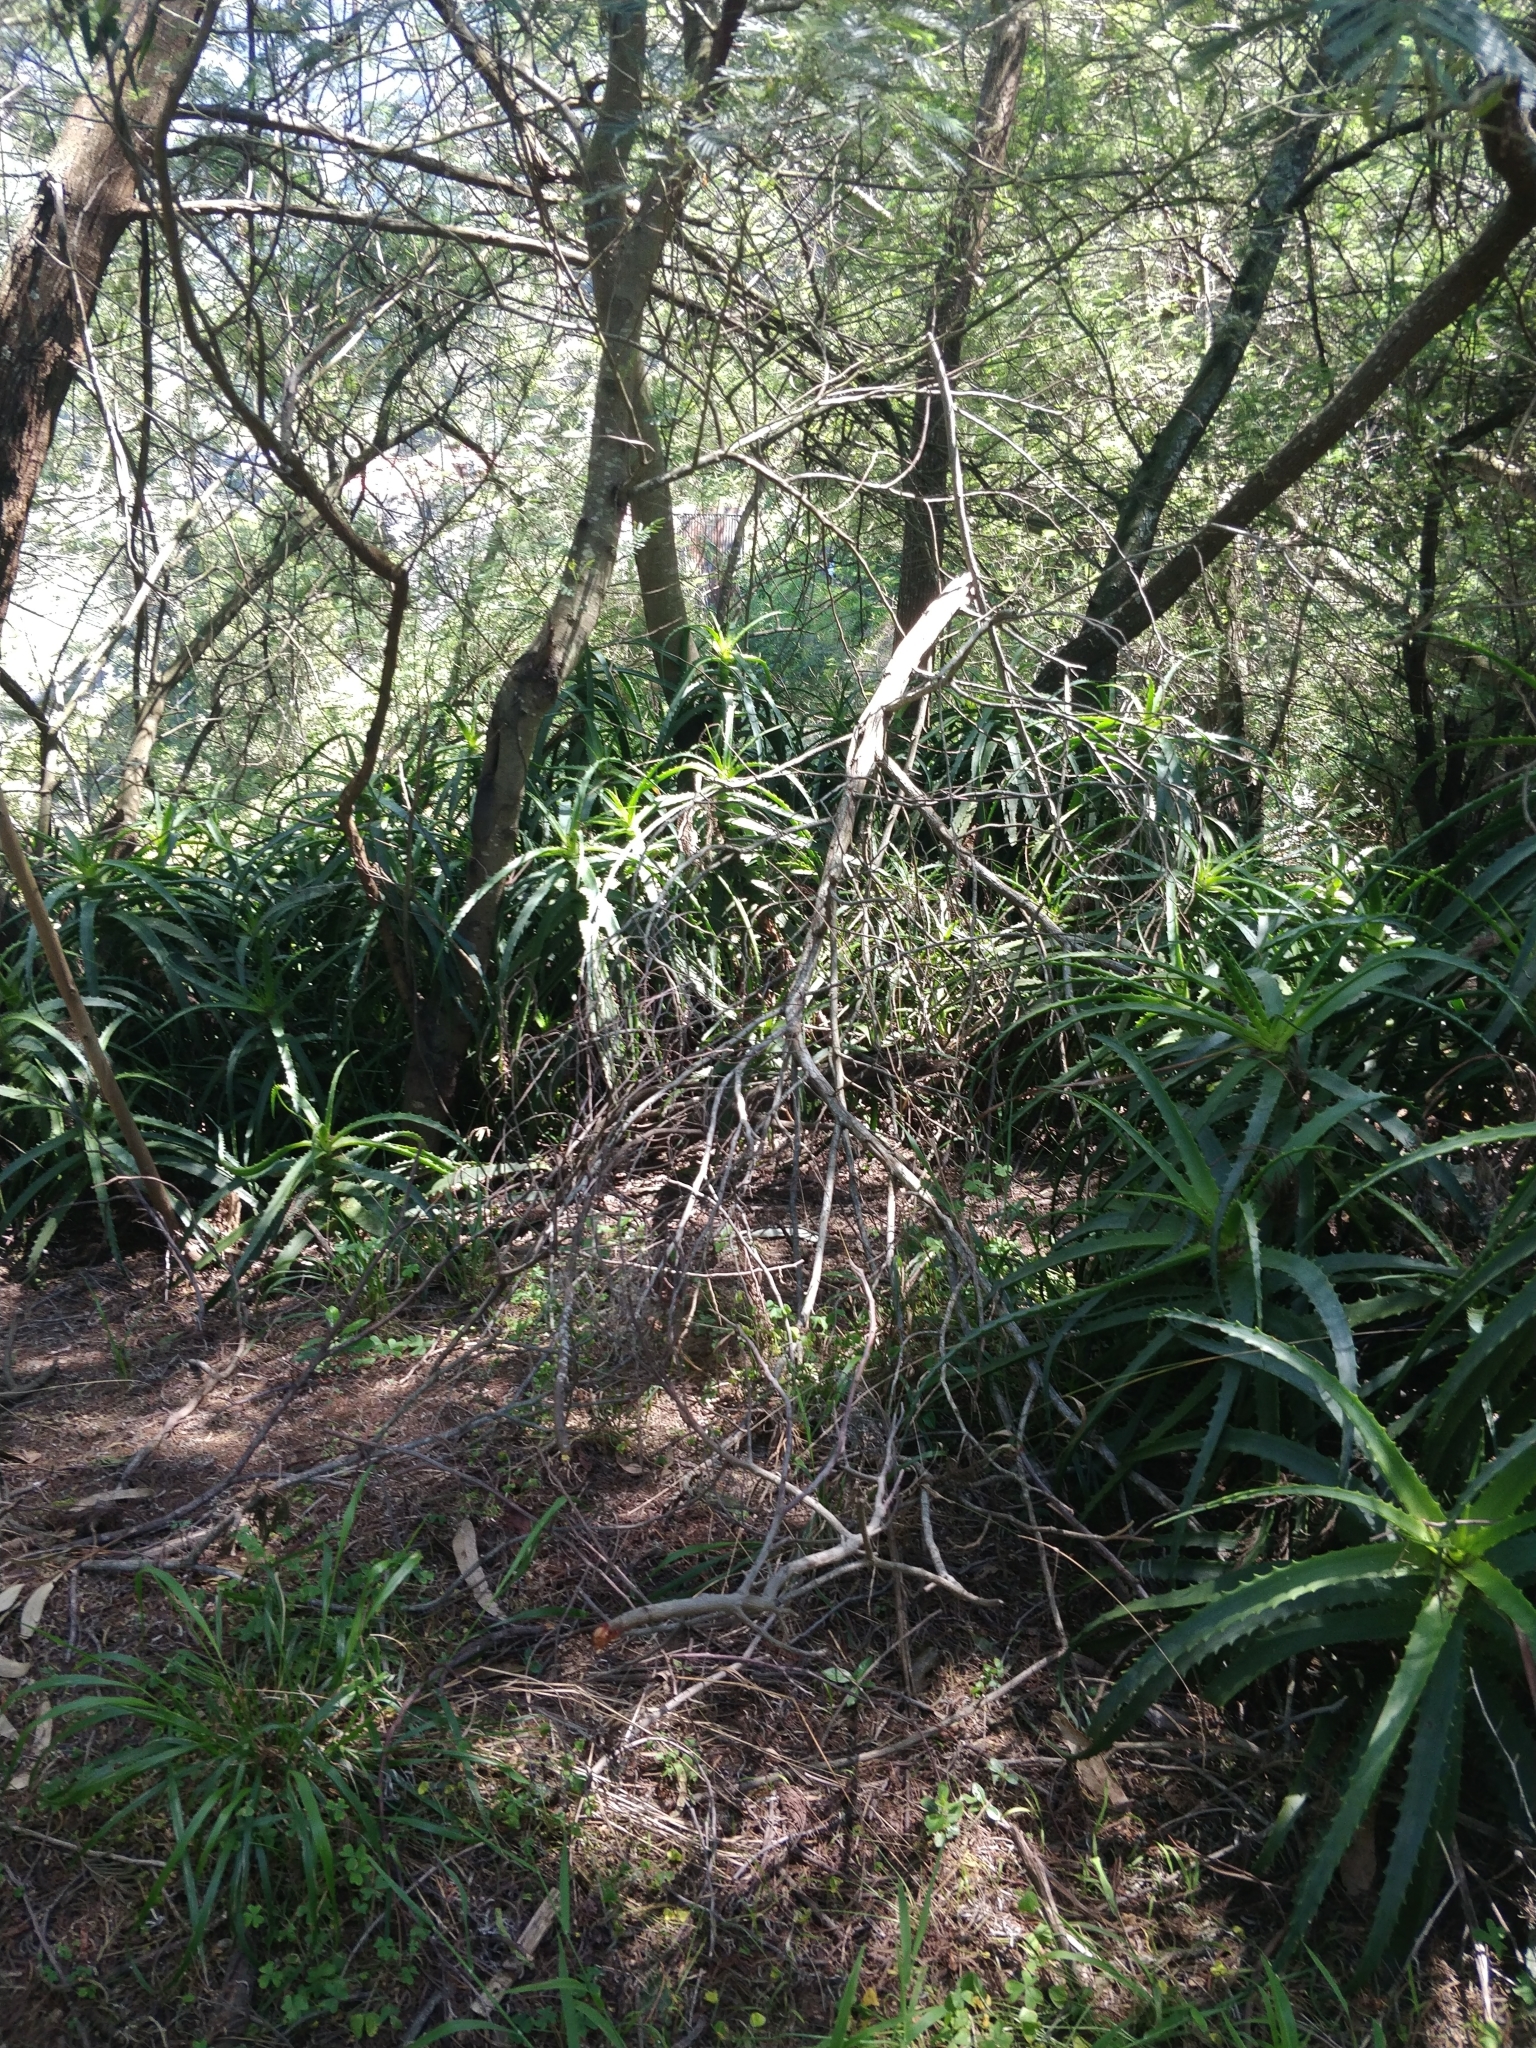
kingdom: Plantae
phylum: Tracheophyta
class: Liliopsida
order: Asparagales
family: Asphodelaceae
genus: Aloe
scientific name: Aloe arborescens
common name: Candelabra aloe
